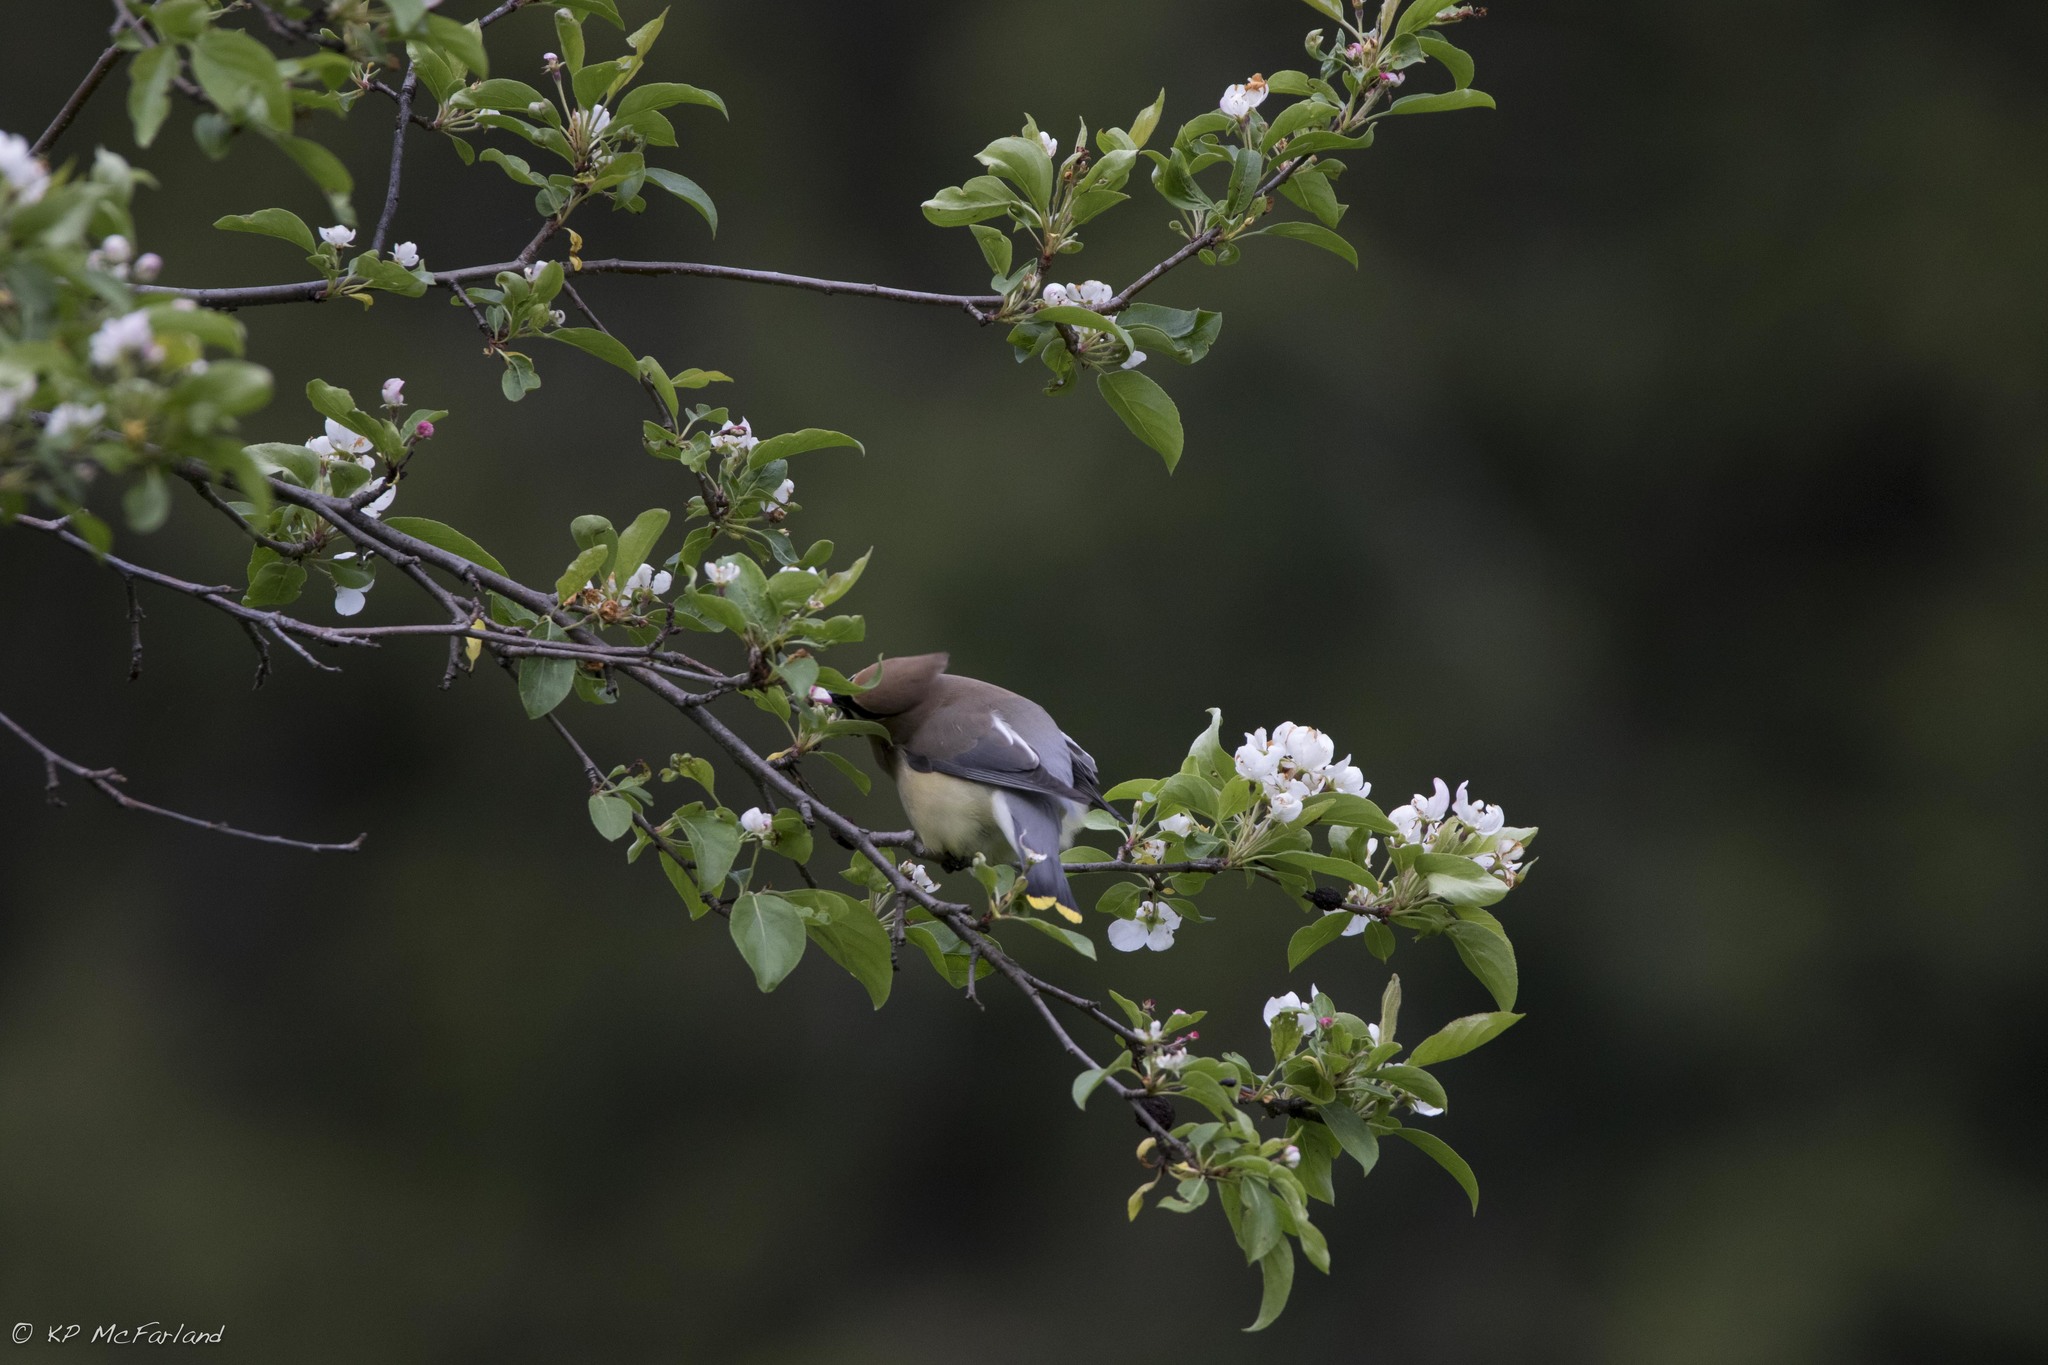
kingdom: Animalia
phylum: Chordata
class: Aves
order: Passeriformes
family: Bombycillidae
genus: Bombycilla
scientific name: Bombycilla cedrorum
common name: Cedar waxwing
